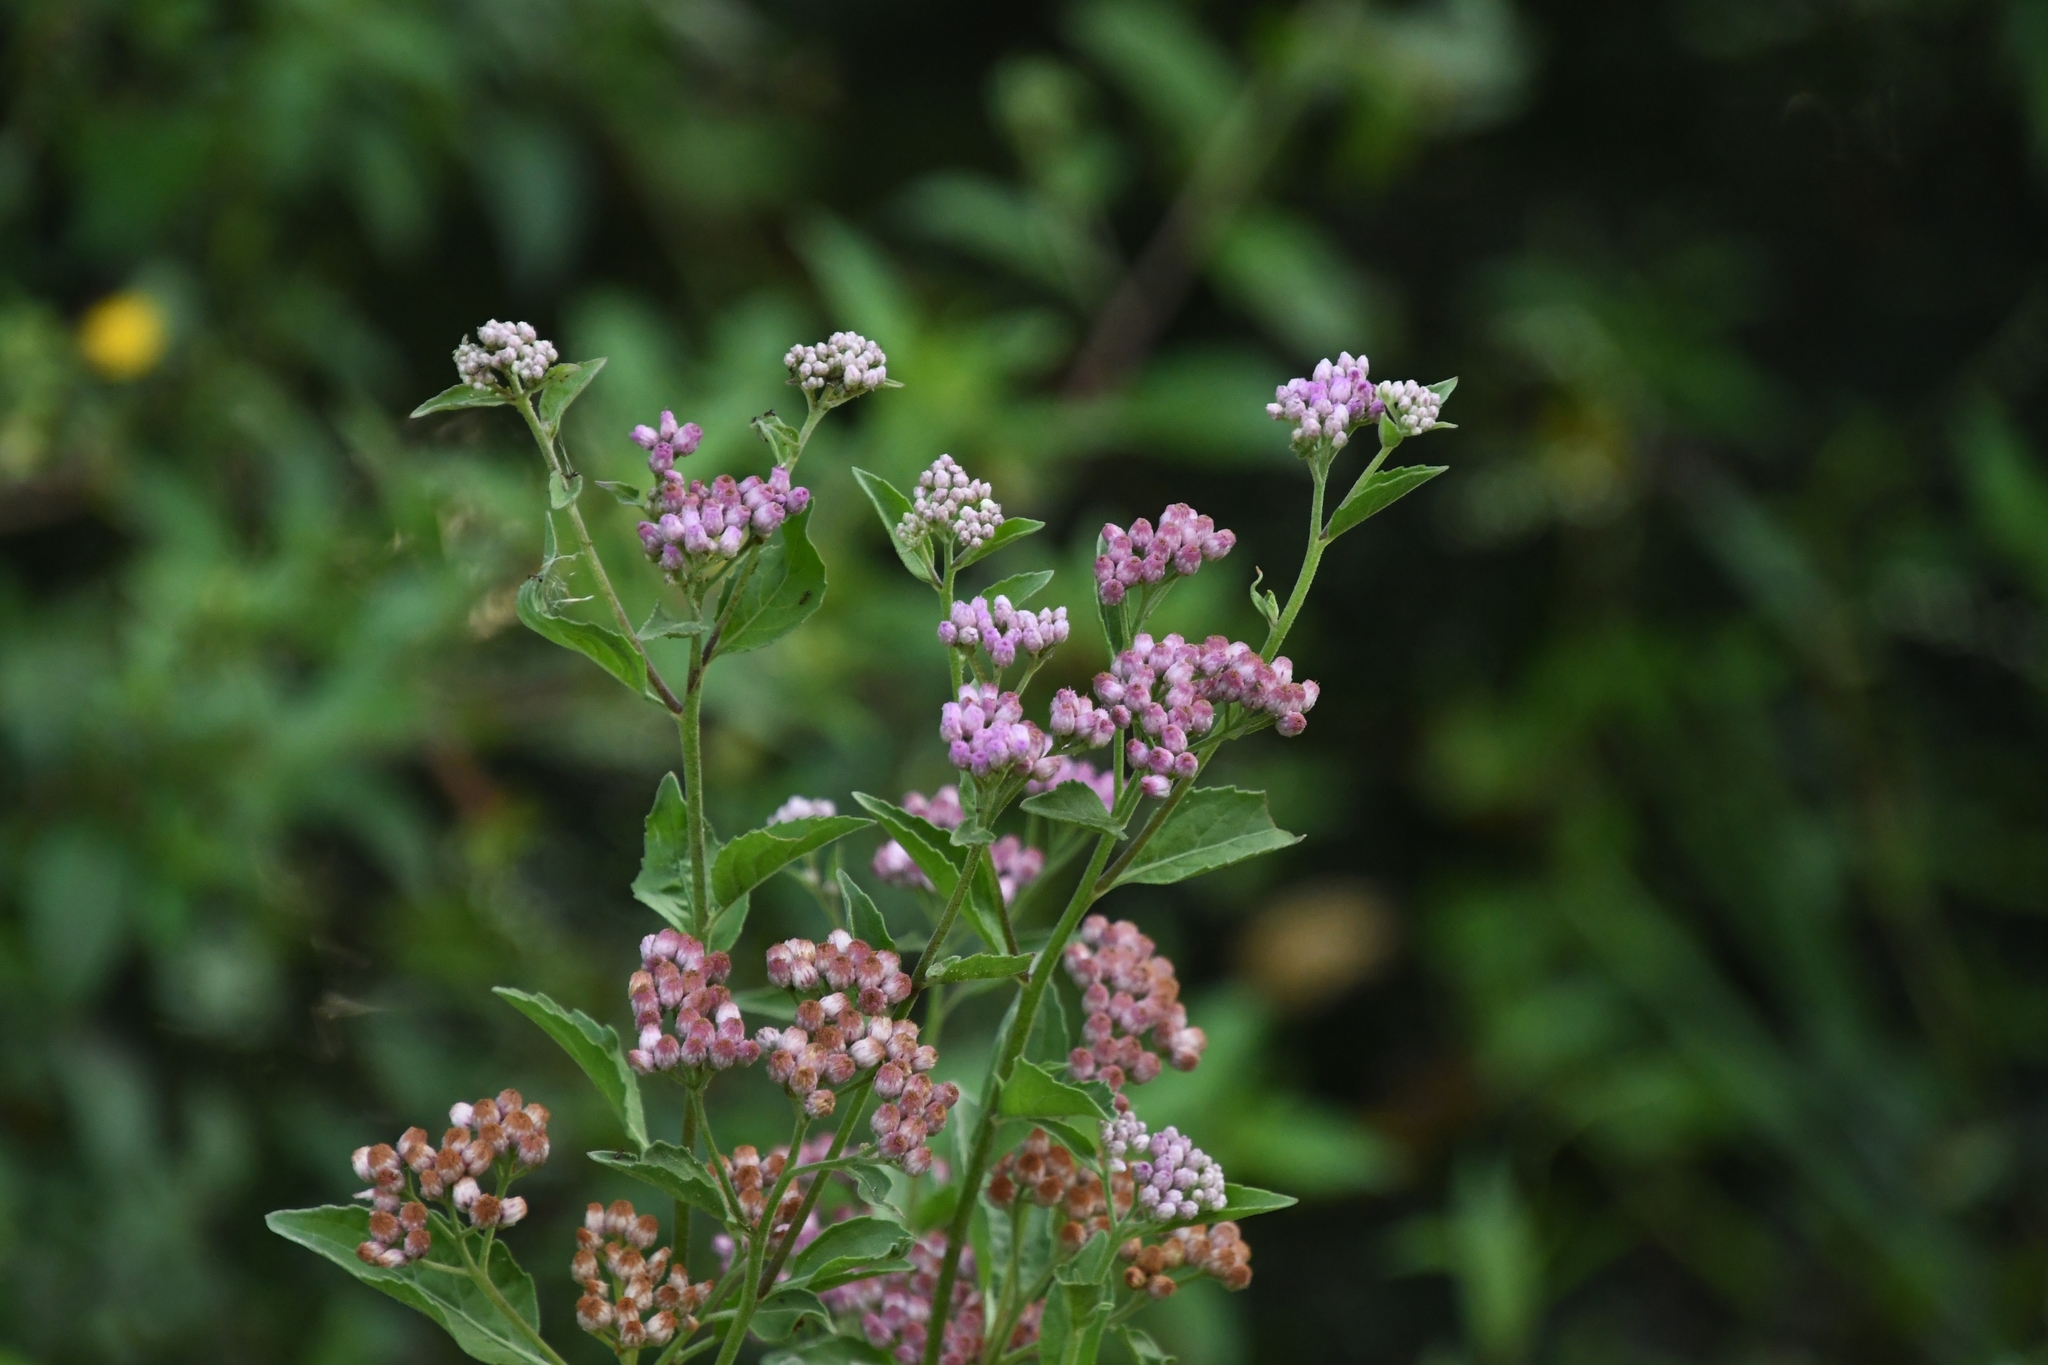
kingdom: Plantae
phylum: Tracheophyta
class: Magnoliopsida
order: Asterales
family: Asteraceae
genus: Pluchea
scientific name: Pluchea odorata
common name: Saltmarsh fleabane
